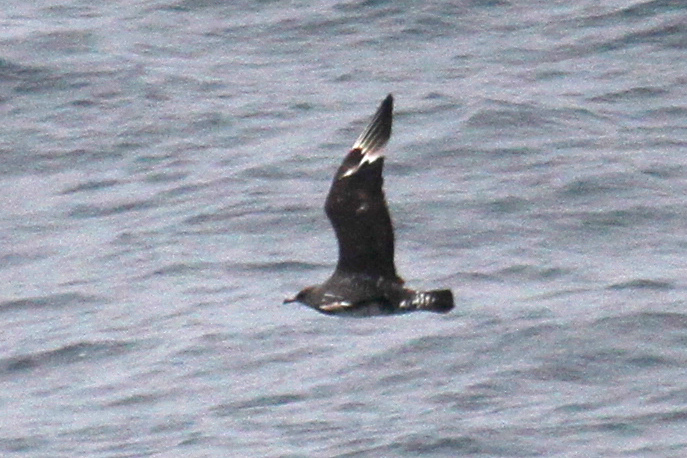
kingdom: Animalia
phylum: Chordata
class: Aves
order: Charadriiformes
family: Stercorariidae
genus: Stercorarius
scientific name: Stercorarius pomarinus
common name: Pomarine jaeger
